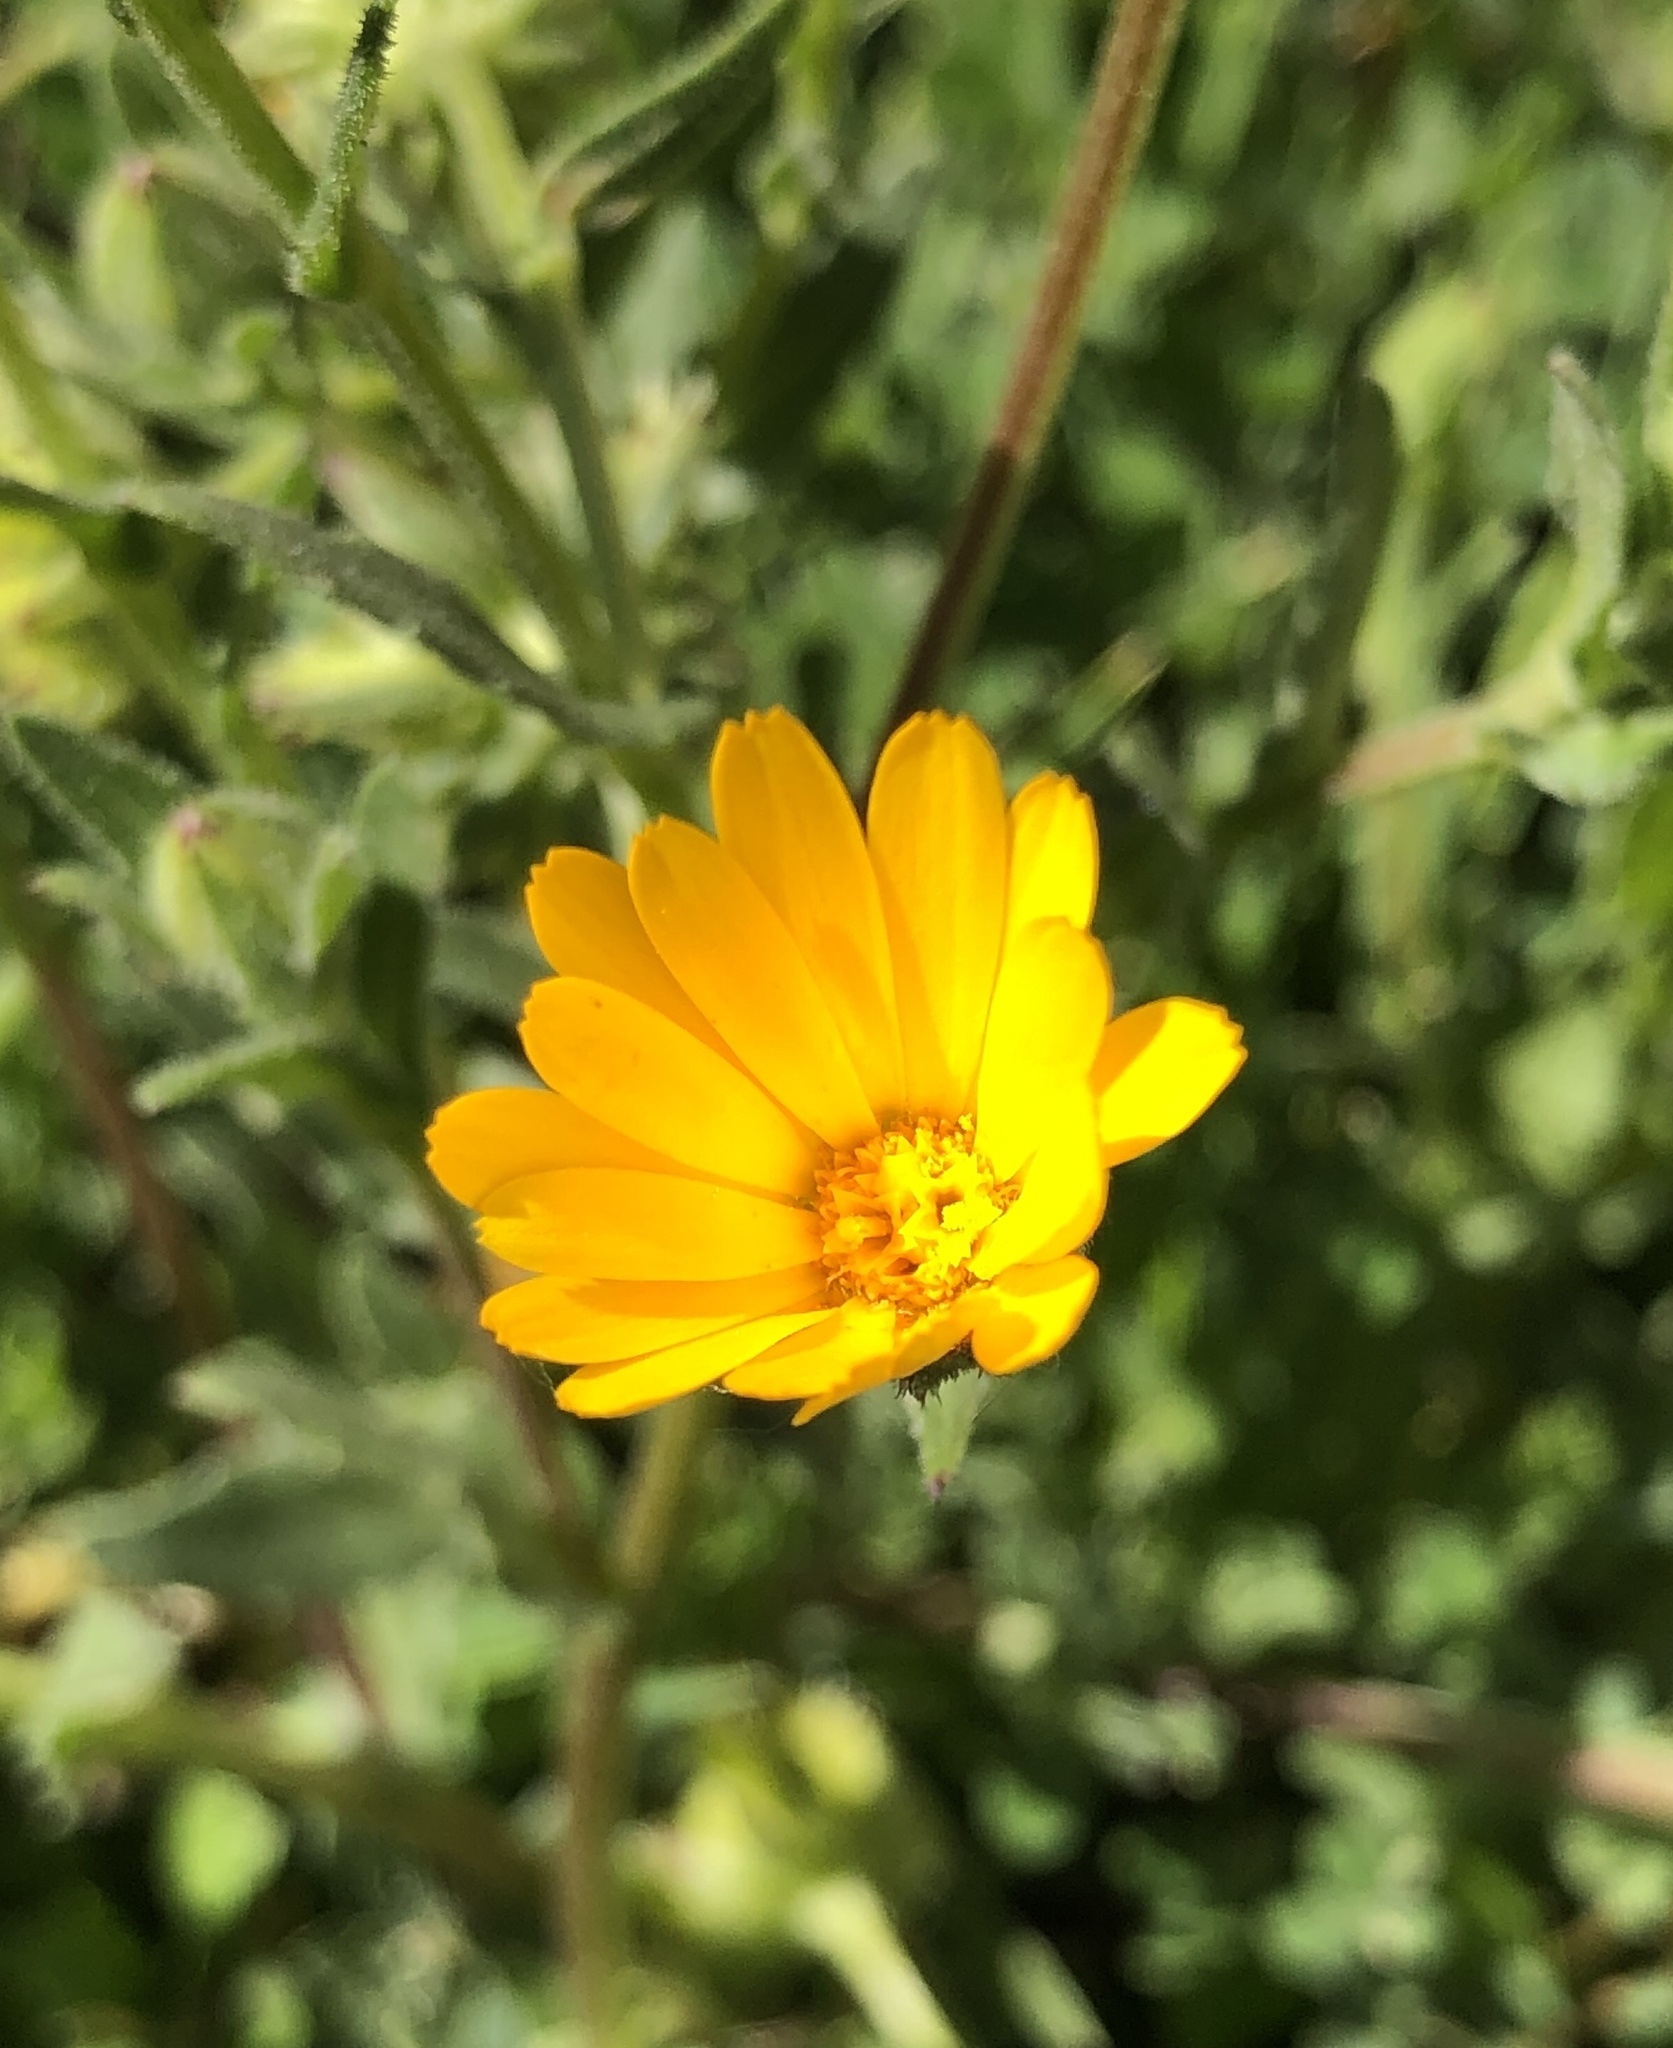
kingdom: Plantae
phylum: Tracheophyta
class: Magnoliopsida
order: Asterales
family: Asteraceae
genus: Calendula
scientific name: Calendula arvensis
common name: Field marigold
